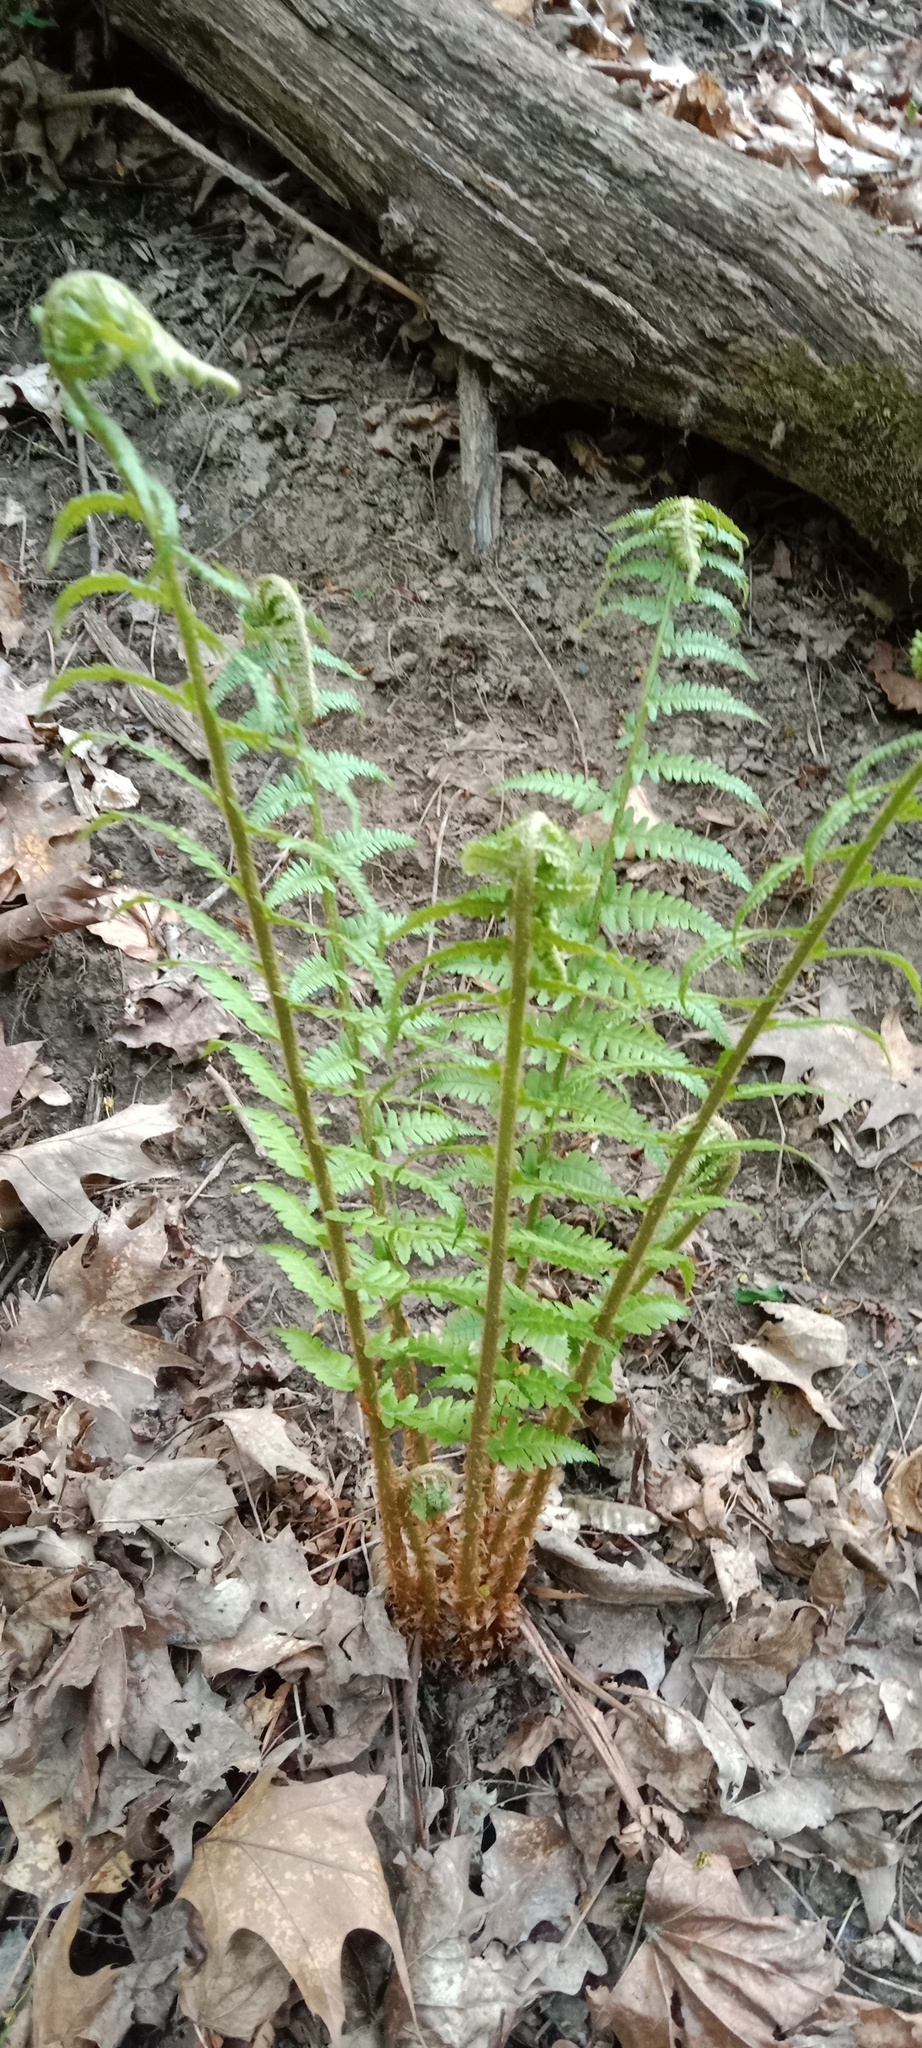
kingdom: Plantae
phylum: Tracheophyta
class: Polypodiopsida
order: Polypodiales
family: Dryopteridaceae
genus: Dryopteris
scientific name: Dryopteris filix-mas
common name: Male fern
